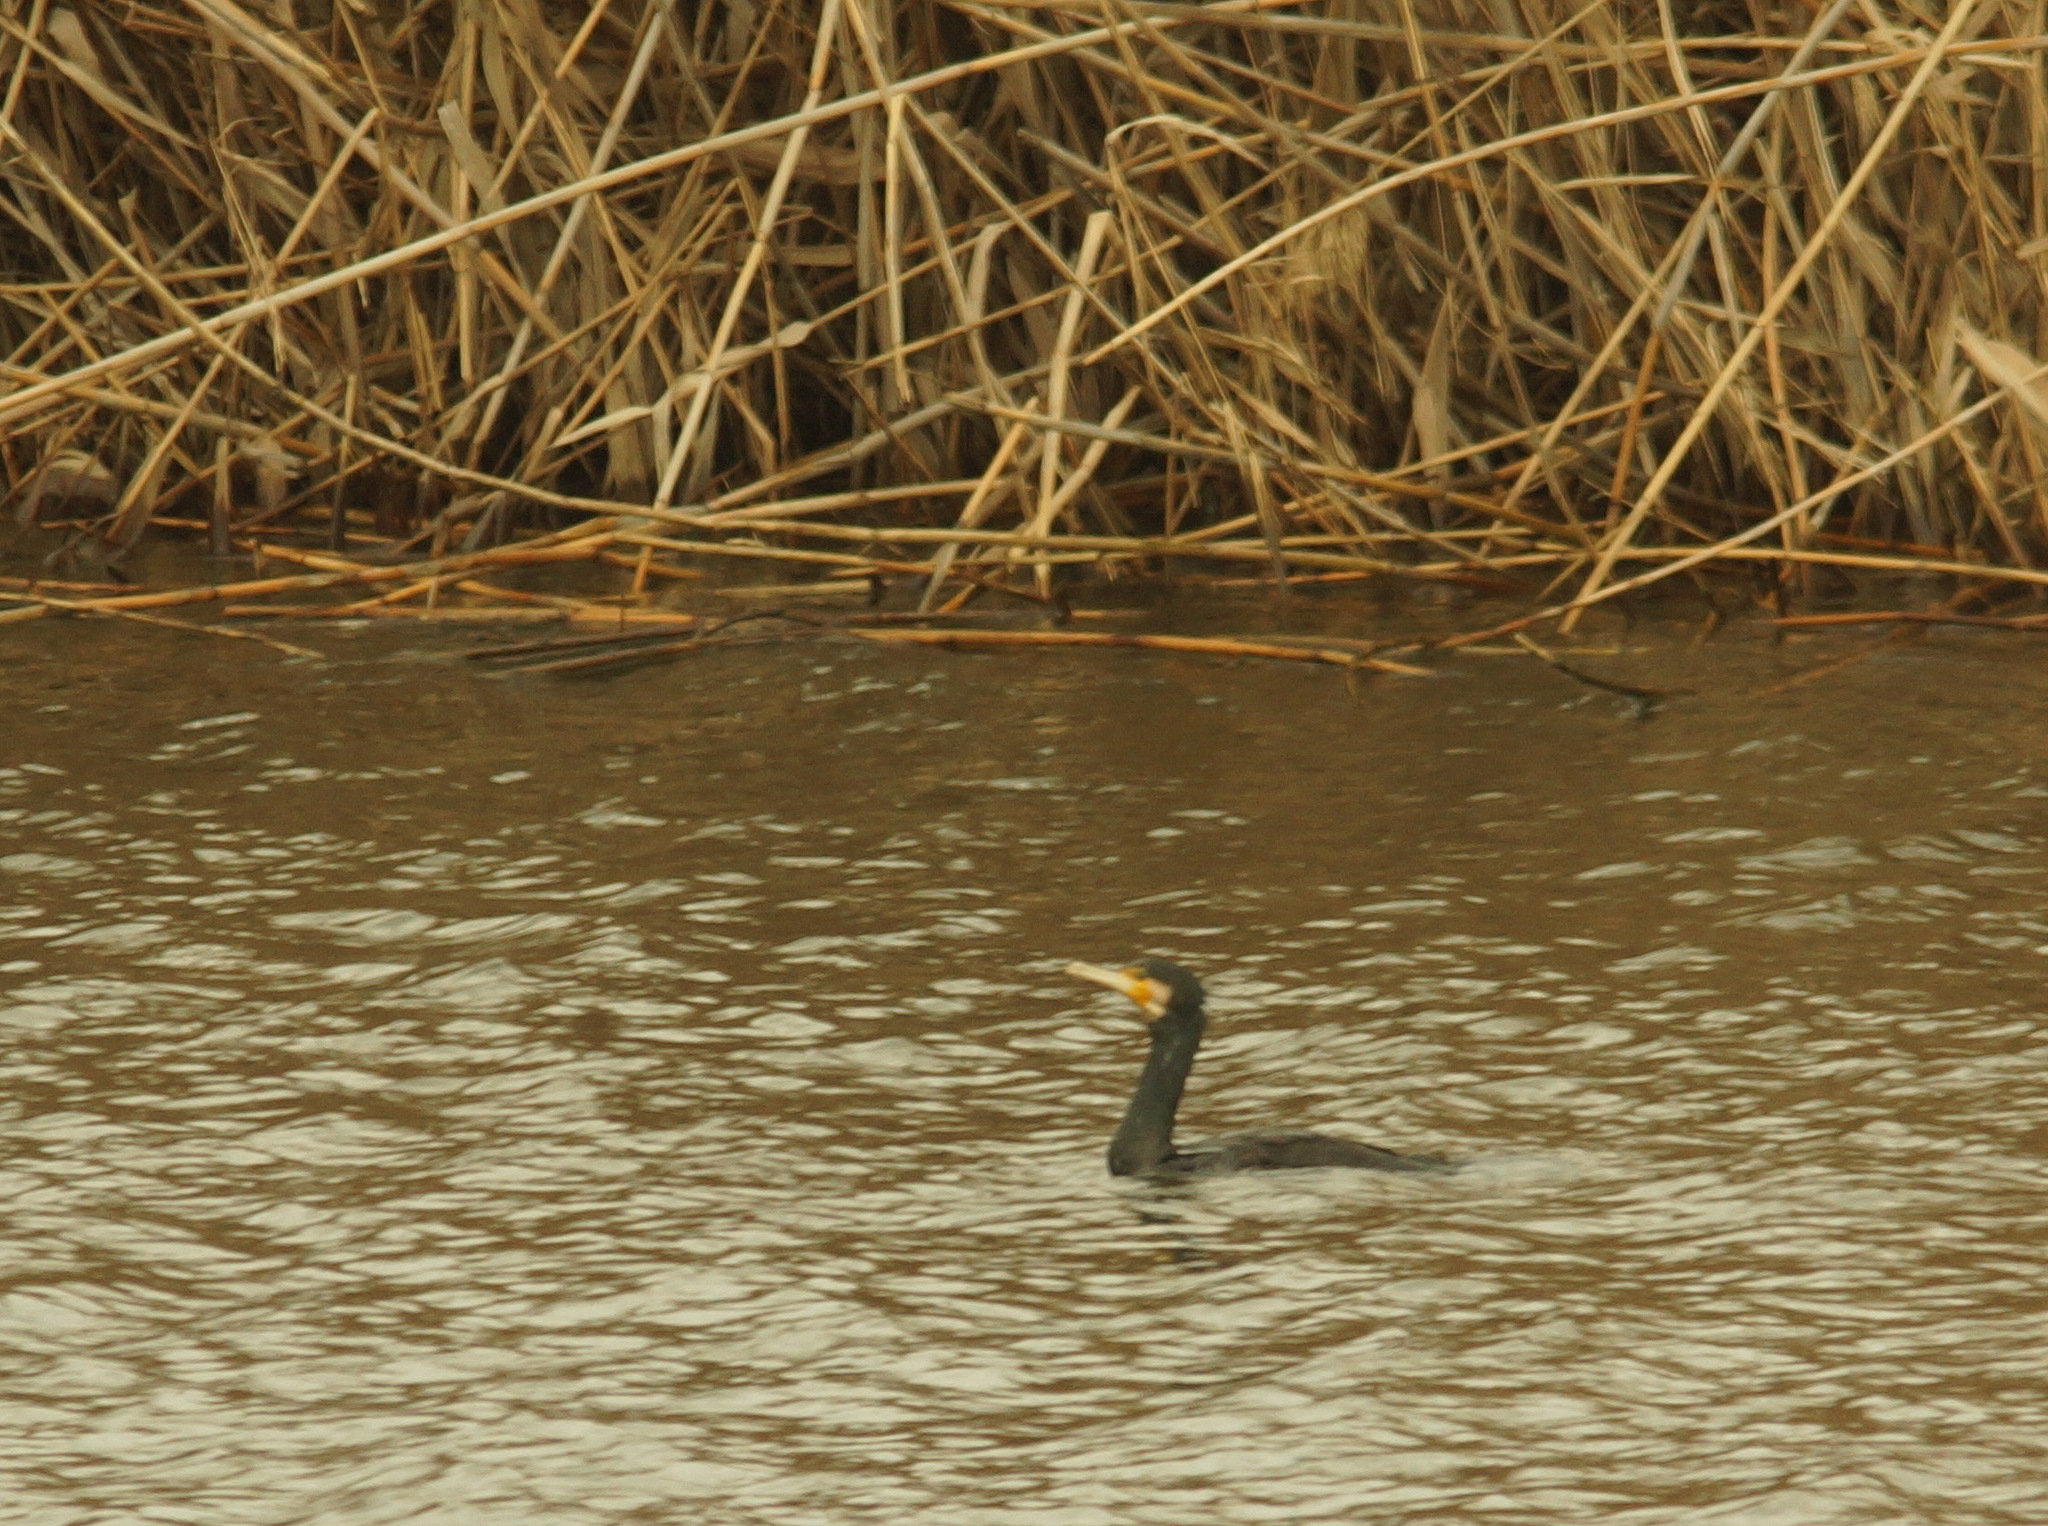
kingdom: Animalia
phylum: Chordata
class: Aves
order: Suliformes
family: Phalacrocoracidae
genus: Phalacrocorax
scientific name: Phalacrocorax carbo
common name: Great cormorant
